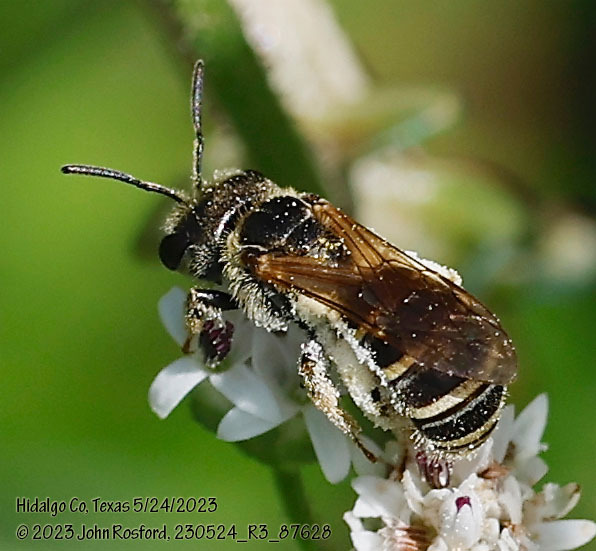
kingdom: Animalia
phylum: Arthropoda
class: Insecta
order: Hymenoptera
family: Halictidae
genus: Halictus
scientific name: Halictus ligatus
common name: Ligated furrow bee
